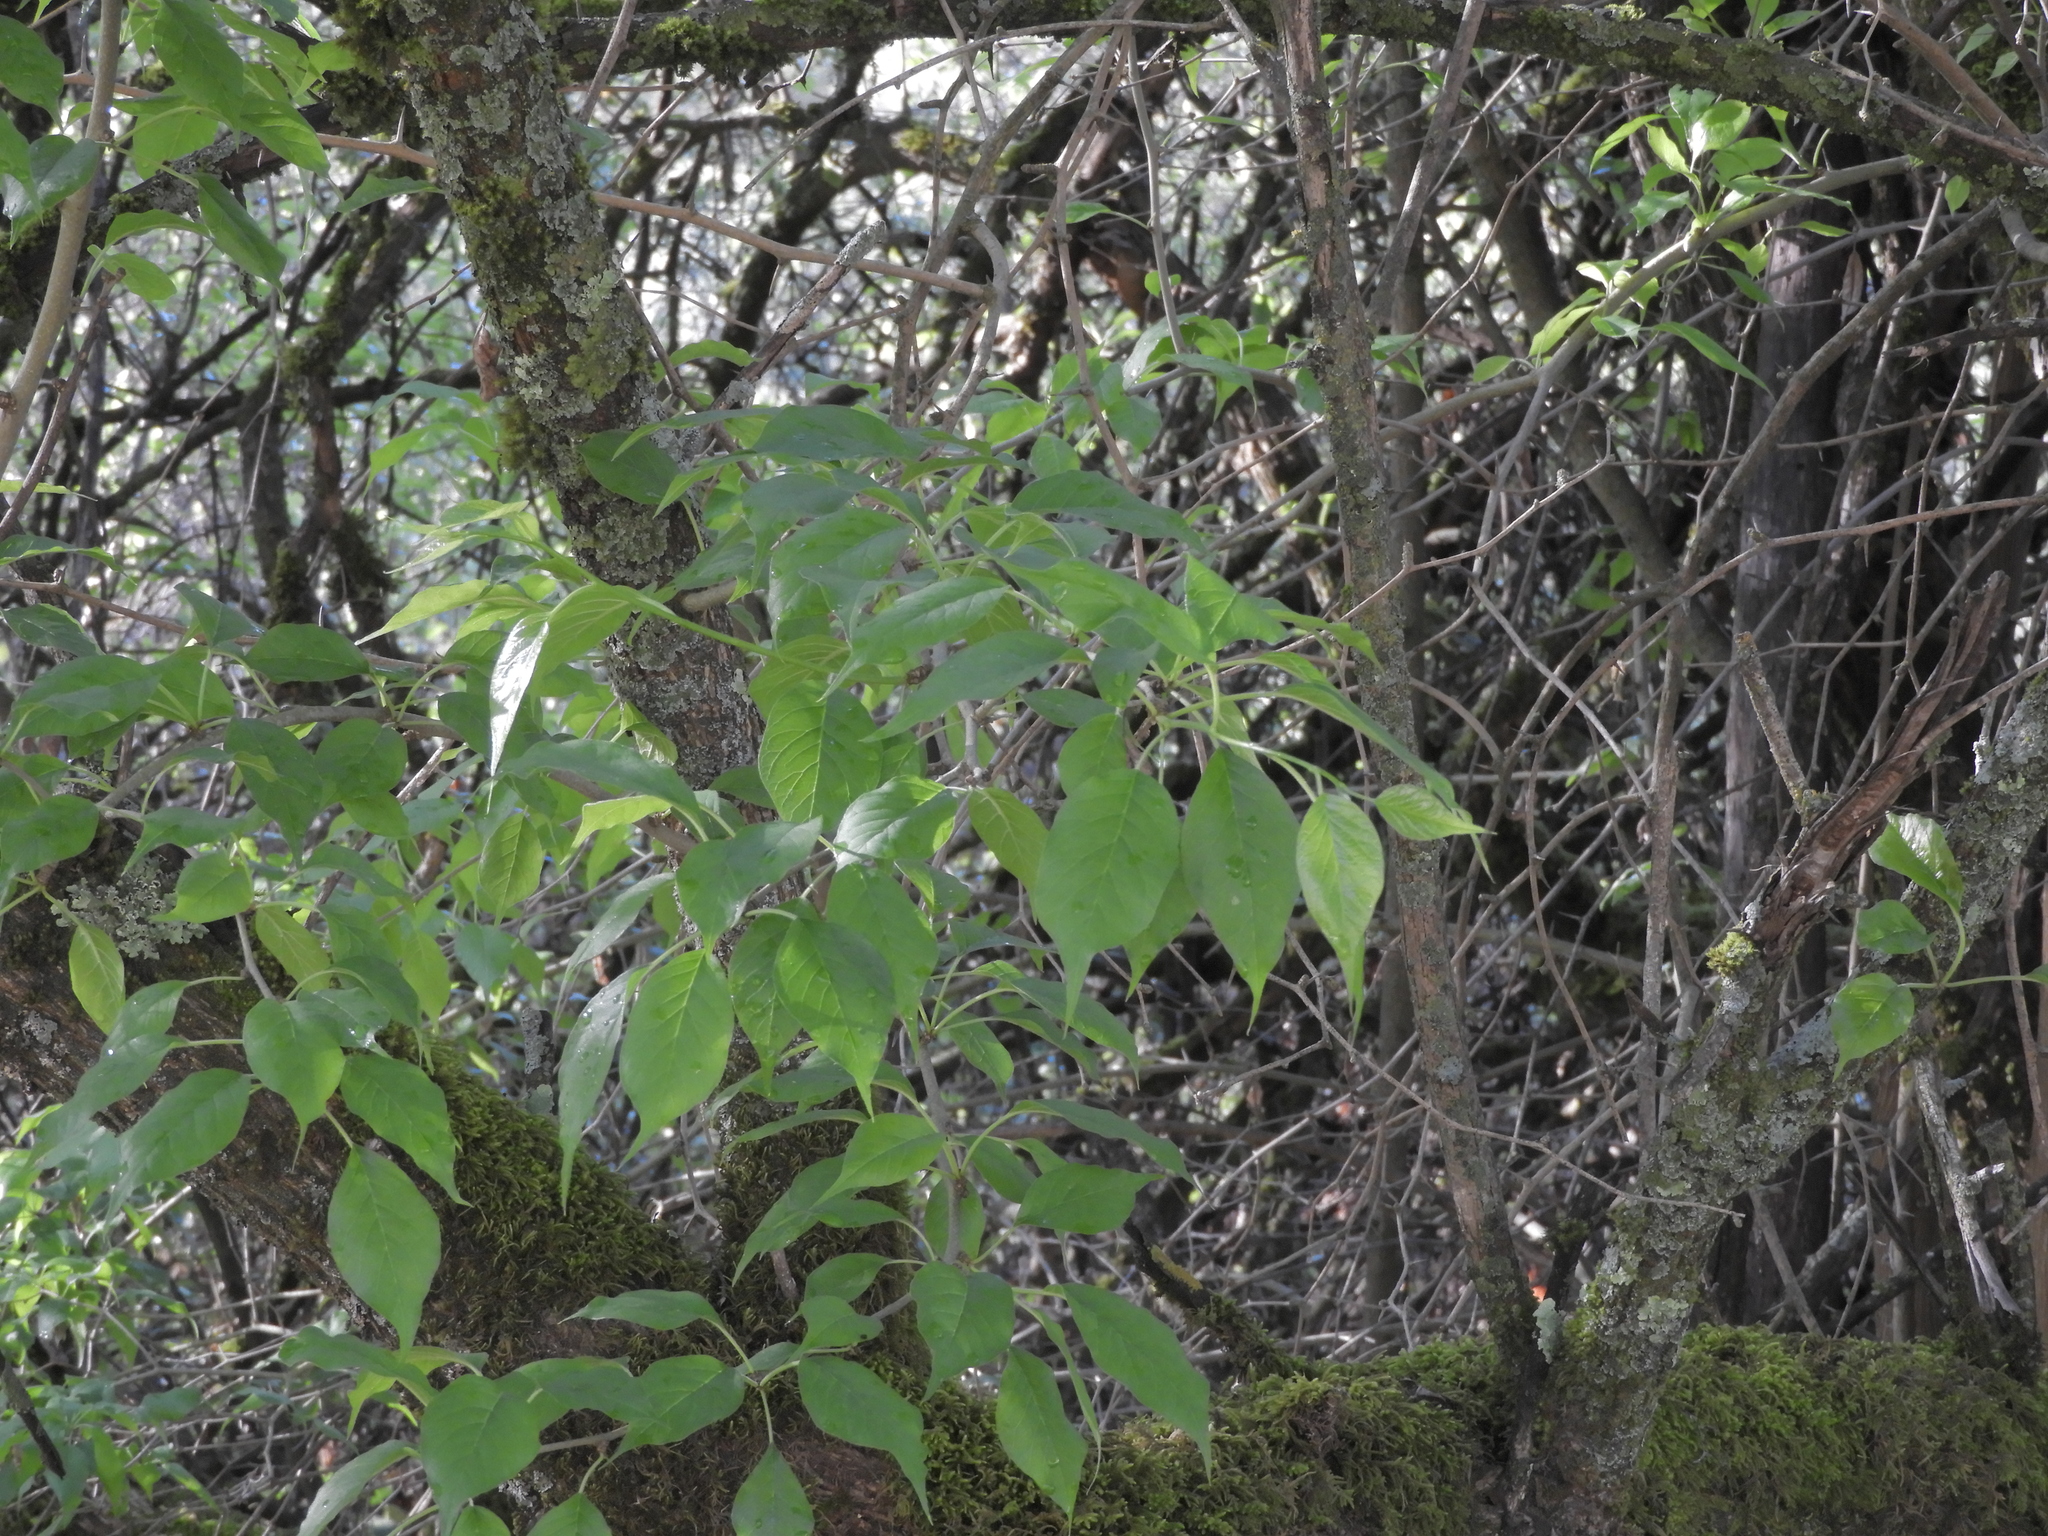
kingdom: Plantae
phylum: Tracheophyta
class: Magnoliopsida
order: Rosales
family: Moraceae
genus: Maclura
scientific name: Maclura pomifera
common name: Osage-orange
